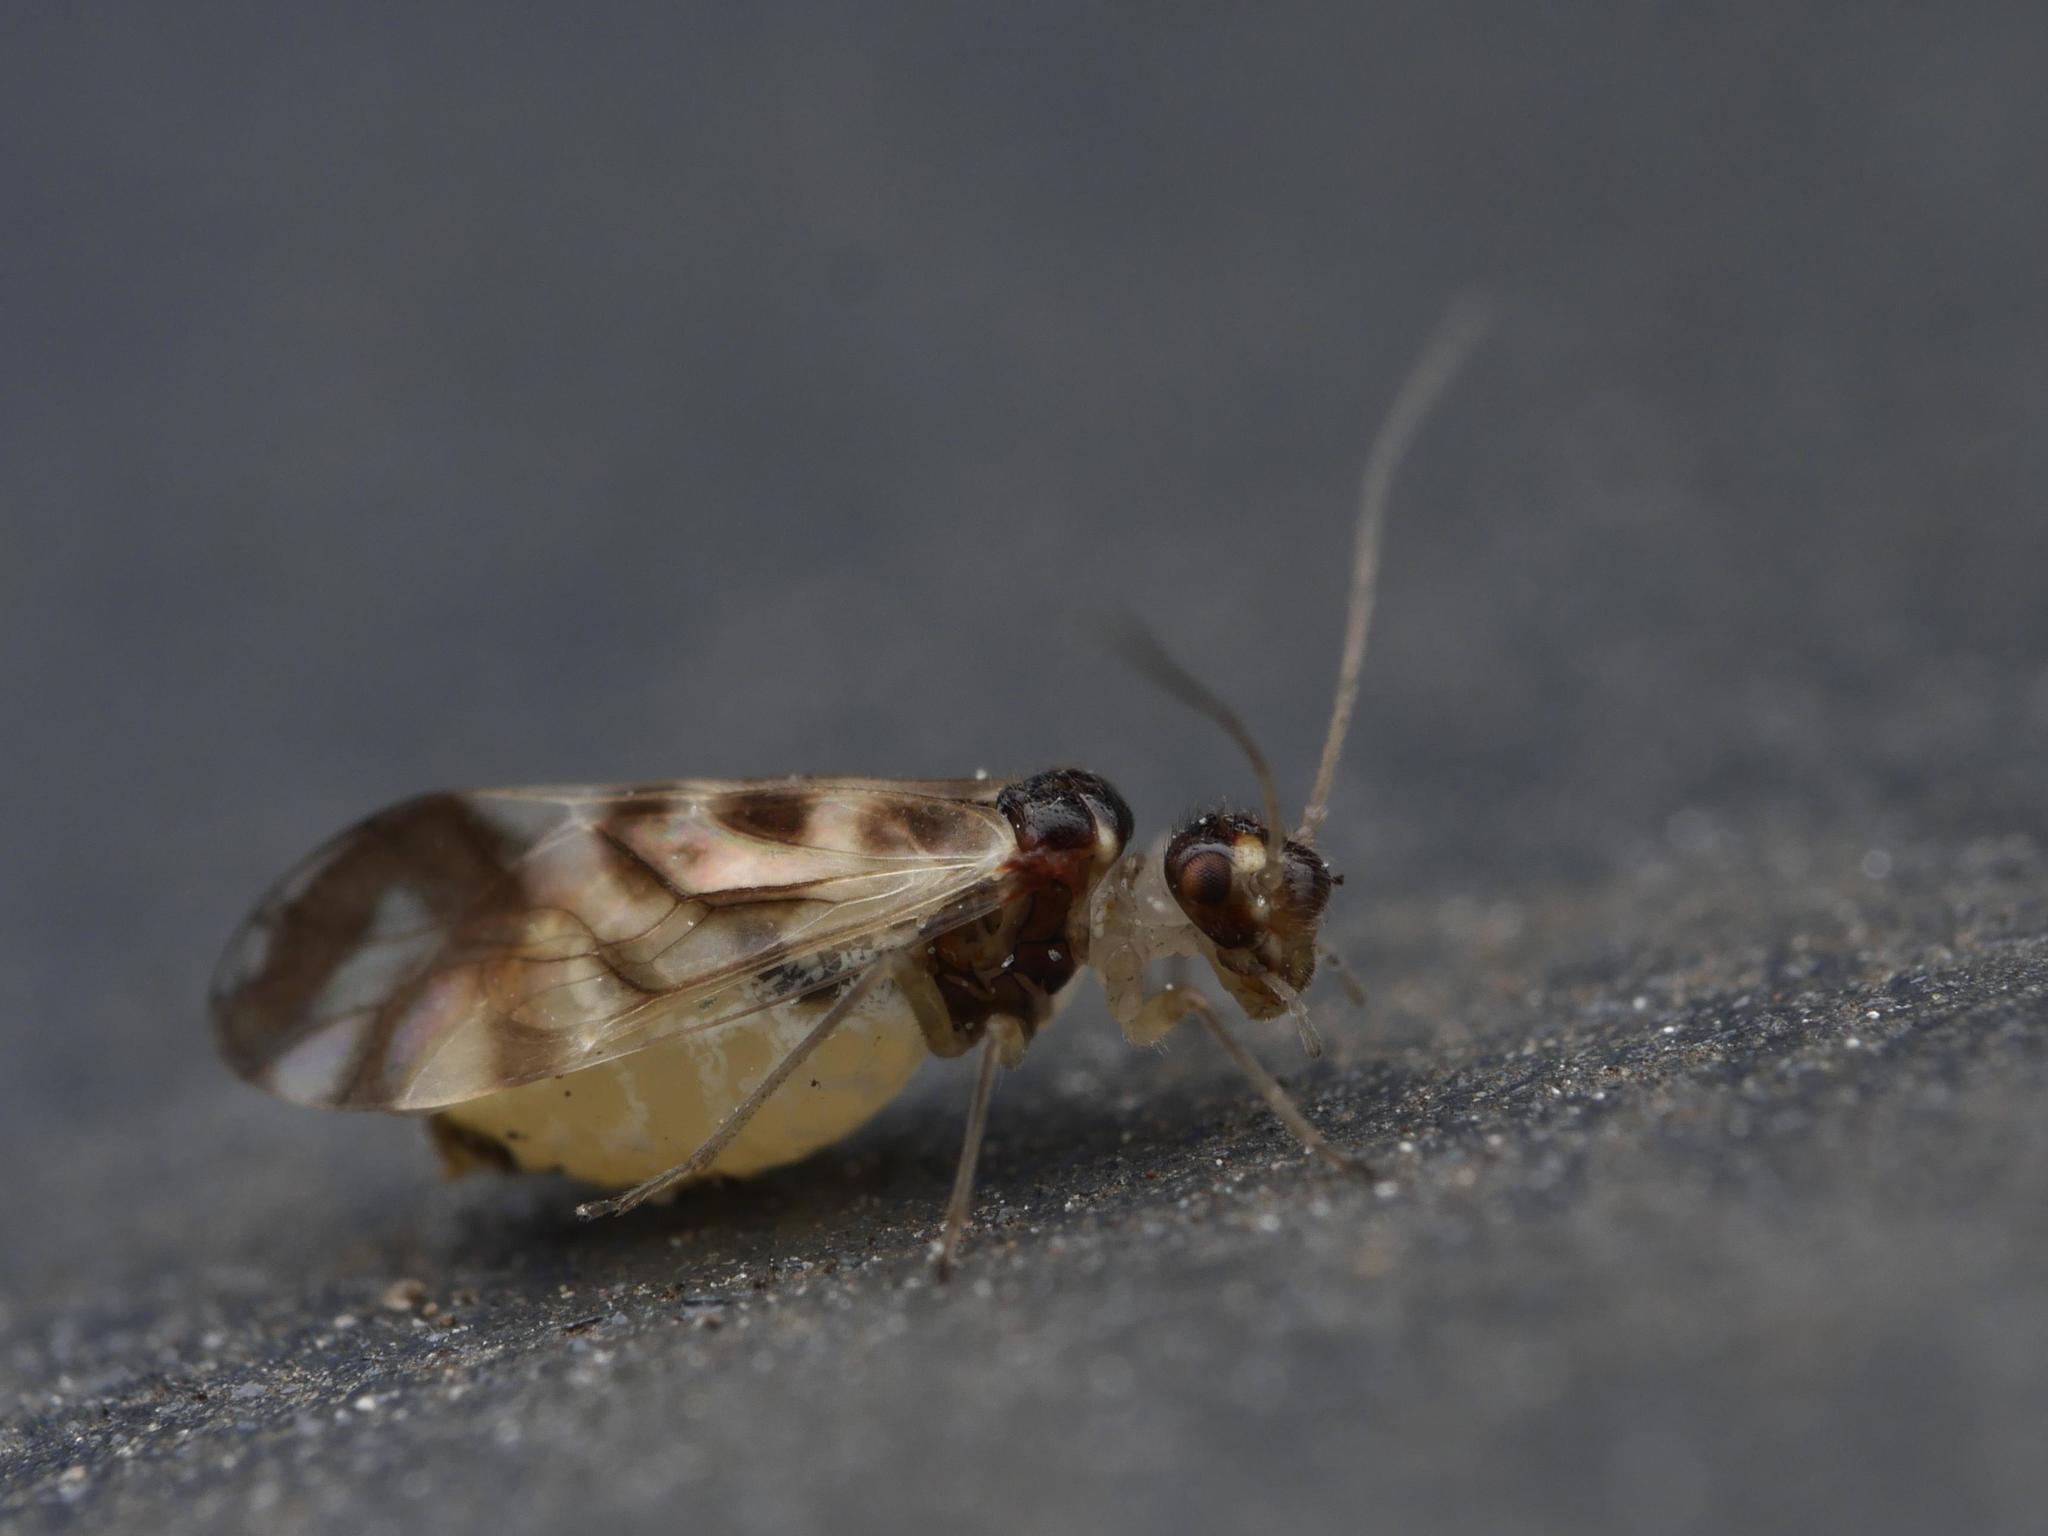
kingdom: Animalia
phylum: Arthropoda
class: Insecta
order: Psocodea
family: Stenopsocidae
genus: Graphopsocus
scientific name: Graphopsocus cruciatus
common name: Lizard bark louse
